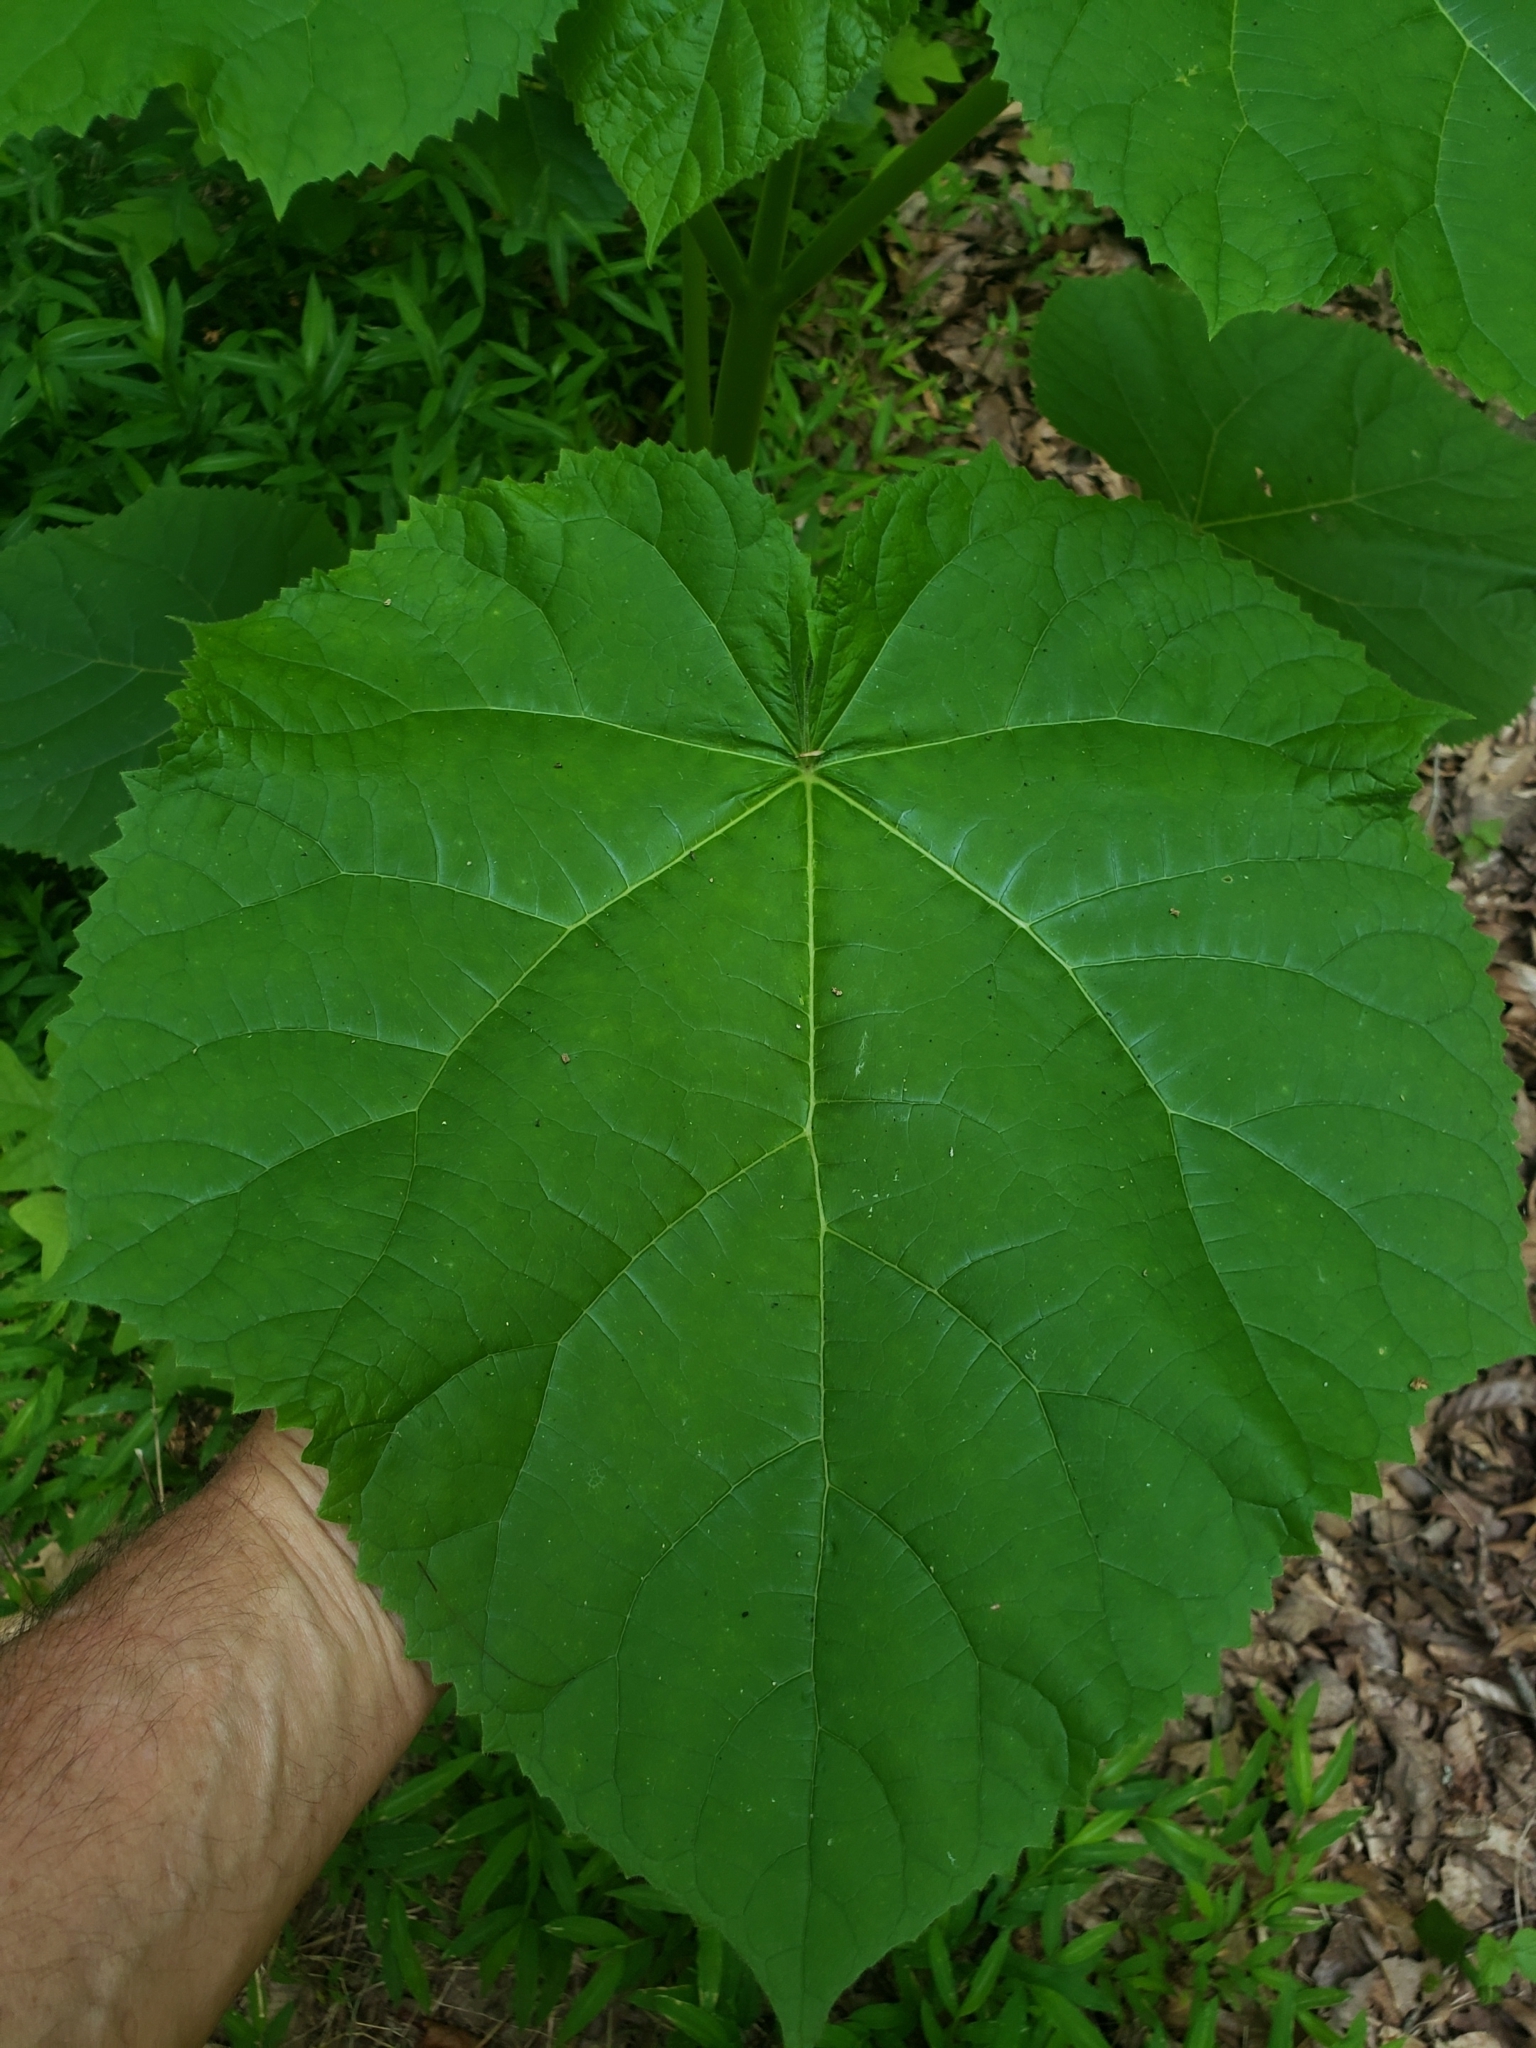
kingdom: Plantae
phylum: Tracheophyta
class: Magnoliopsida
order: Lamiales
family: Paulowniaceae
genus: Paulownia
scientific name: Paulownia tomentosa
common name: Foxglove-tree
